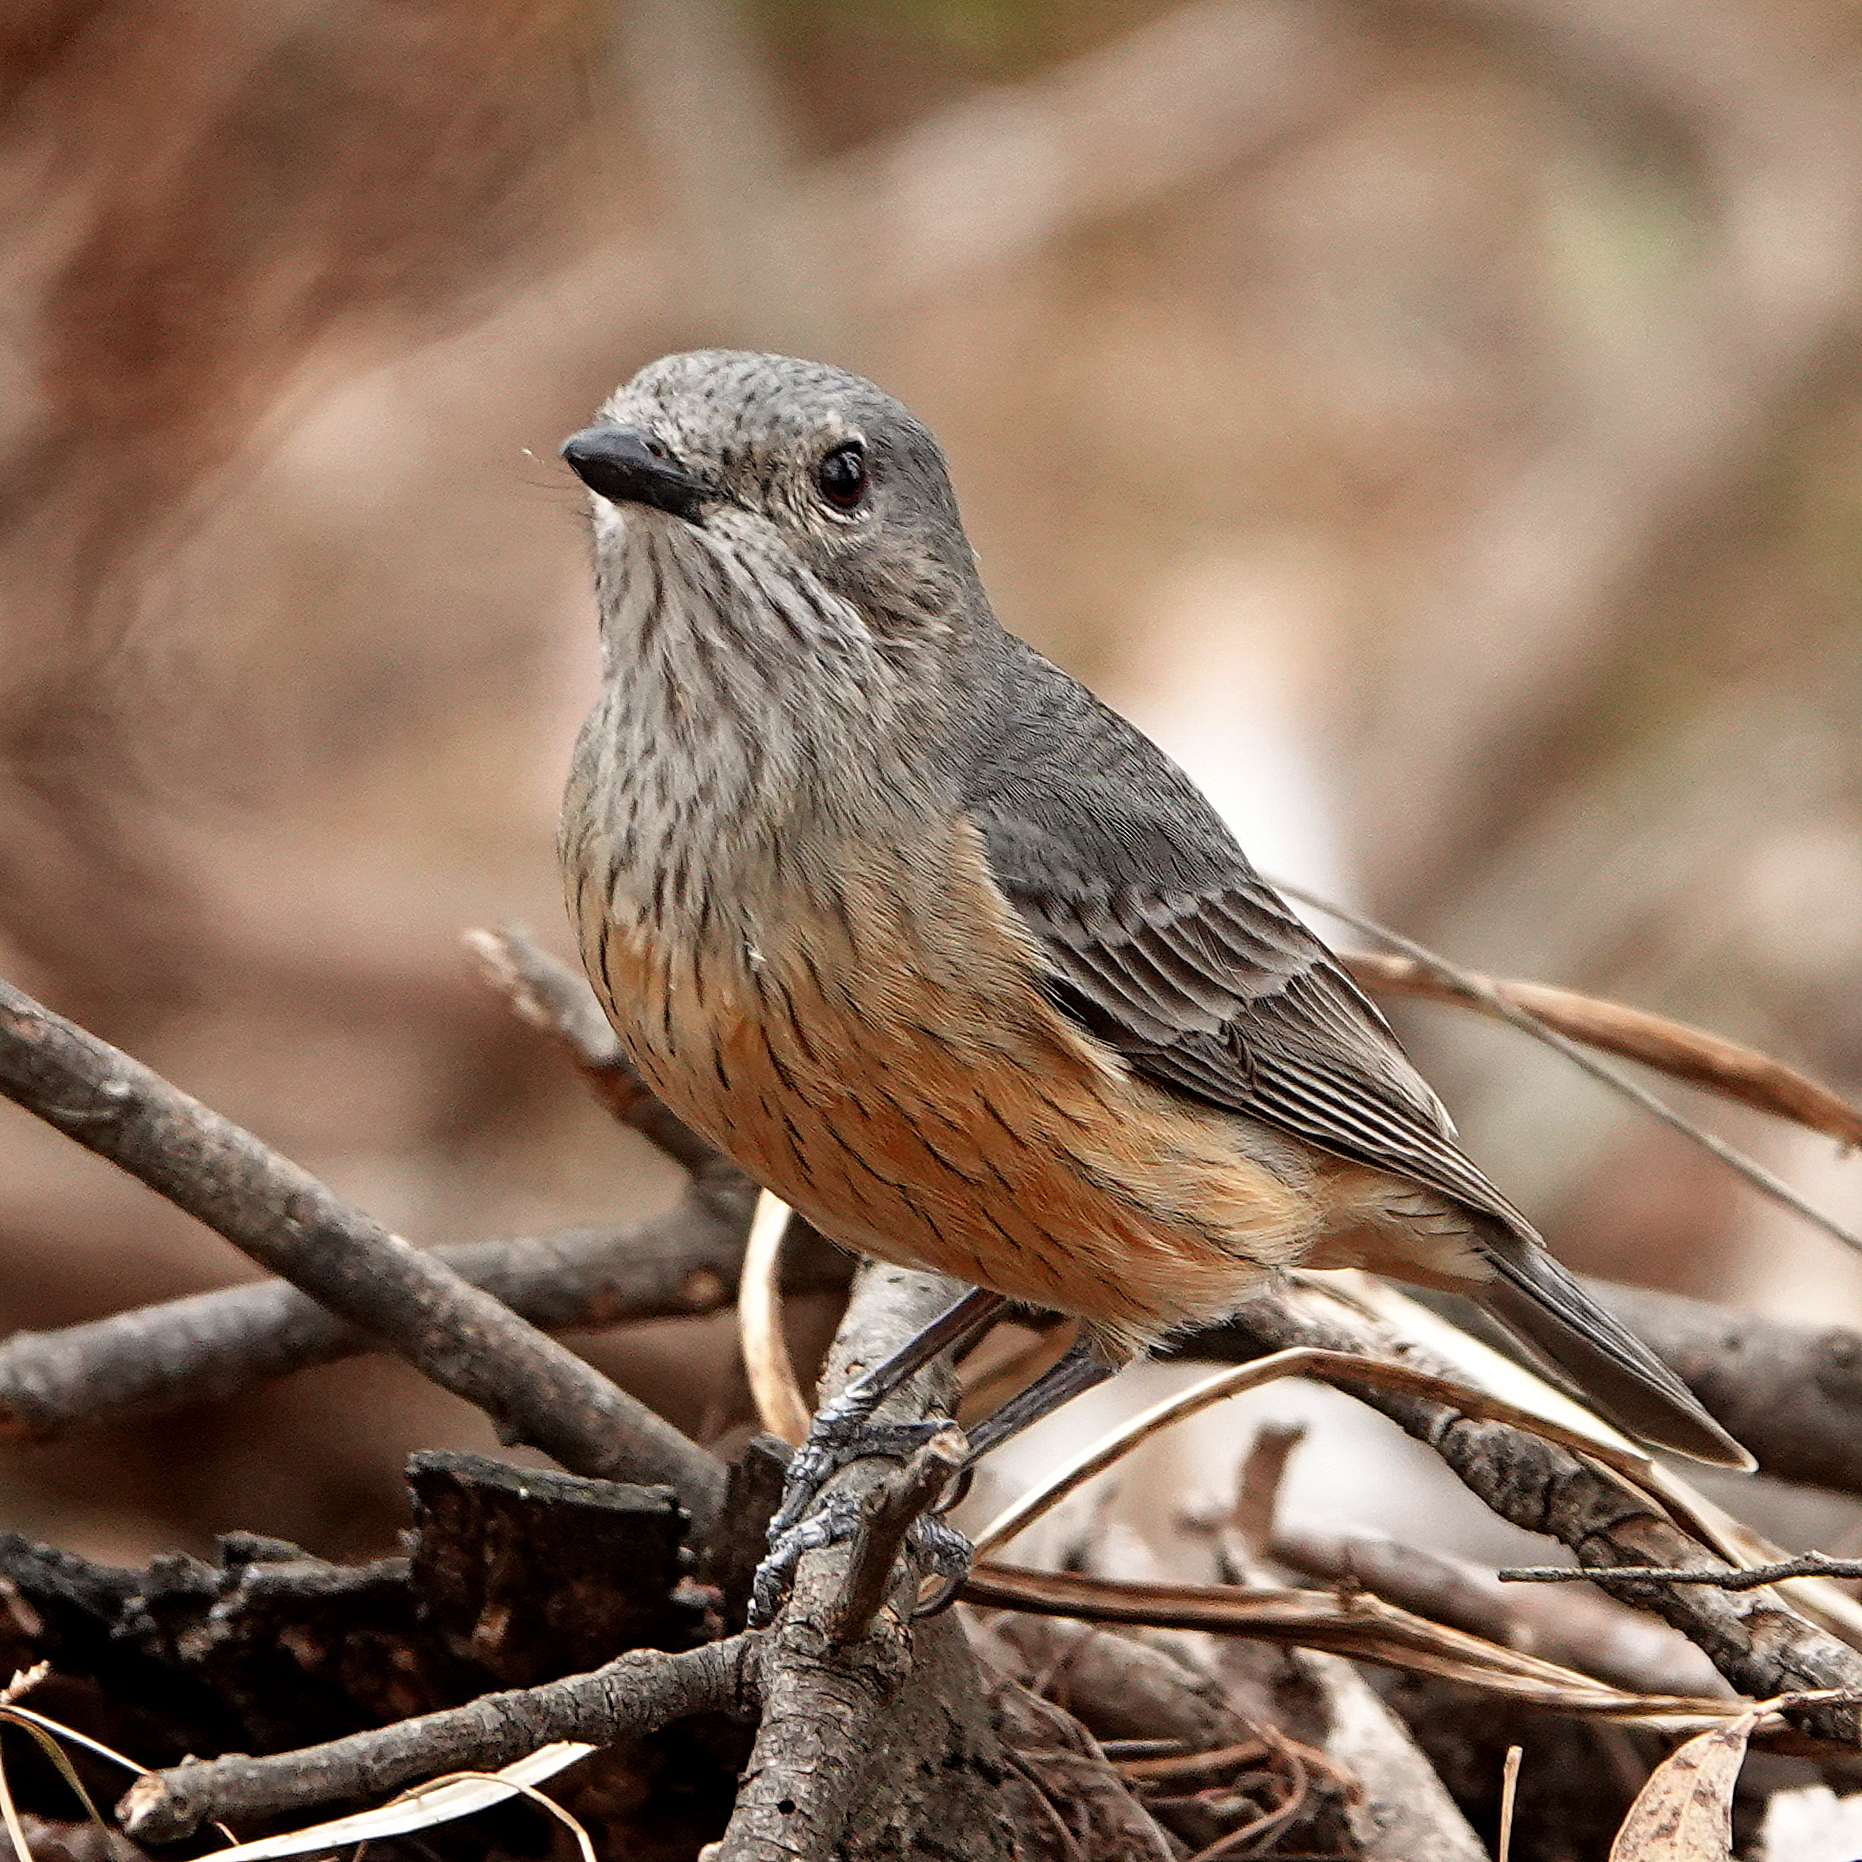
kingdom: Animalia
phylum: Chordata
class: Aves
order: Passeriformes
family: Pachycephalidae
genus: Pachycephala
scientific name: Pachycephala rufiventris
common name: Rufous whistler
